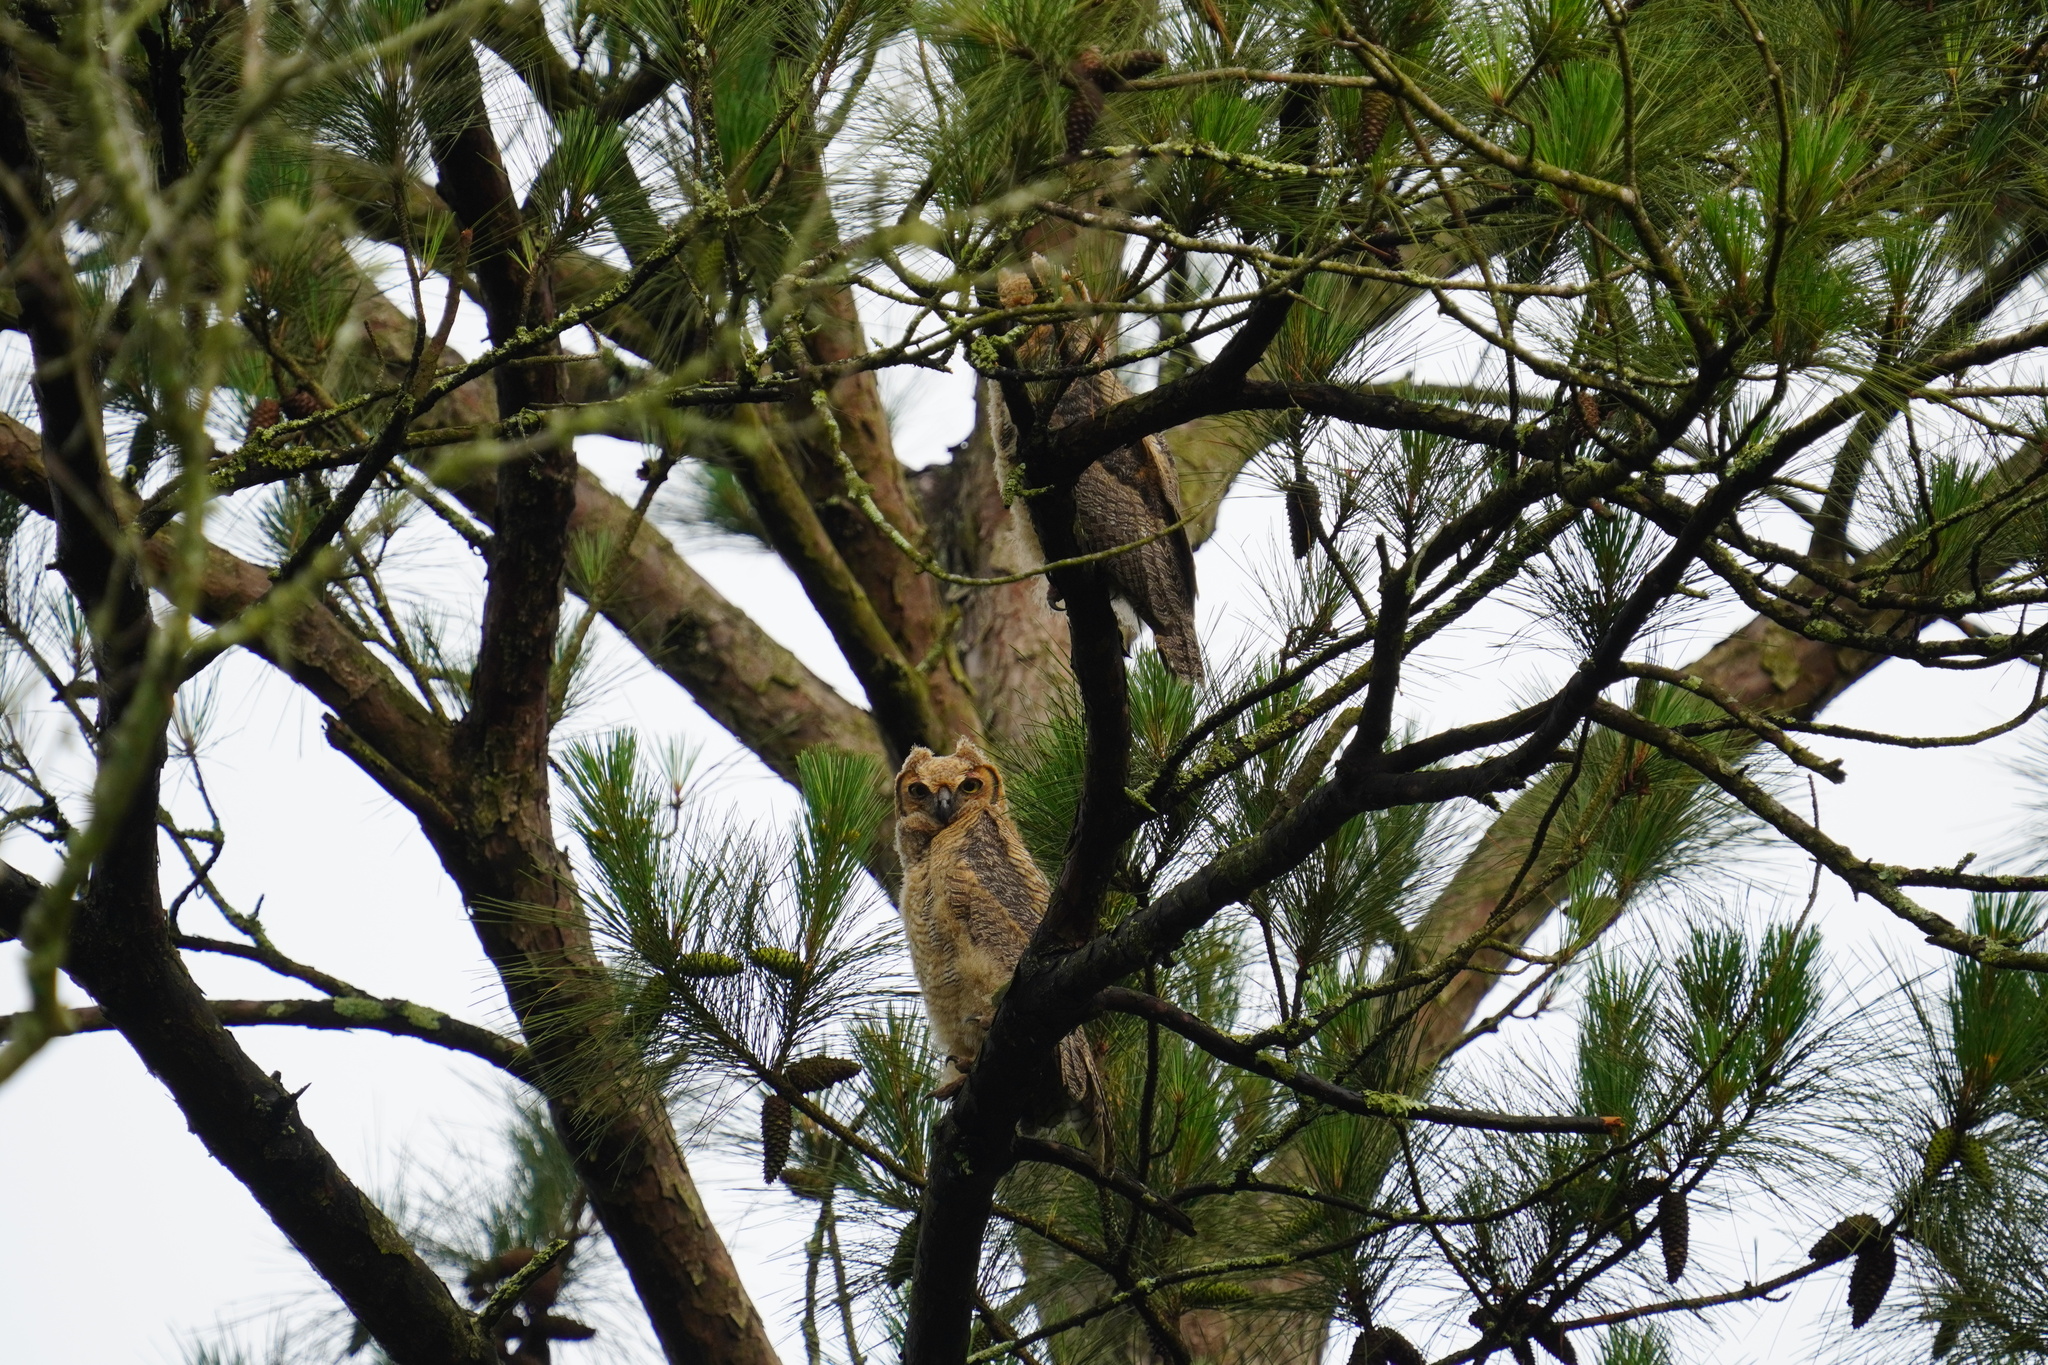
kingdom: Animalia
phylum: Chordata
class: Aves
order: Strigiformes
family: Strigidae
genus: Bubo
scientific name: Bubo virginianus
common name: Great horned owl
